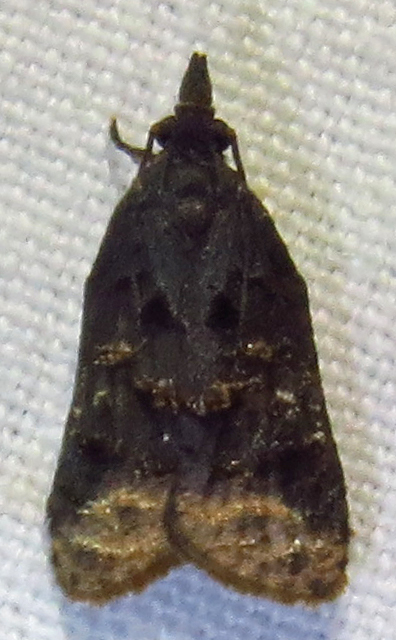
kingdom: Animalia
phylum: Arthropoda
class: Insecta
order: Lepidoptera
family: Tortricidae
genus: Platynota
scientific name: Platynota idaeusalis
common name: Tufted apple bud moth
